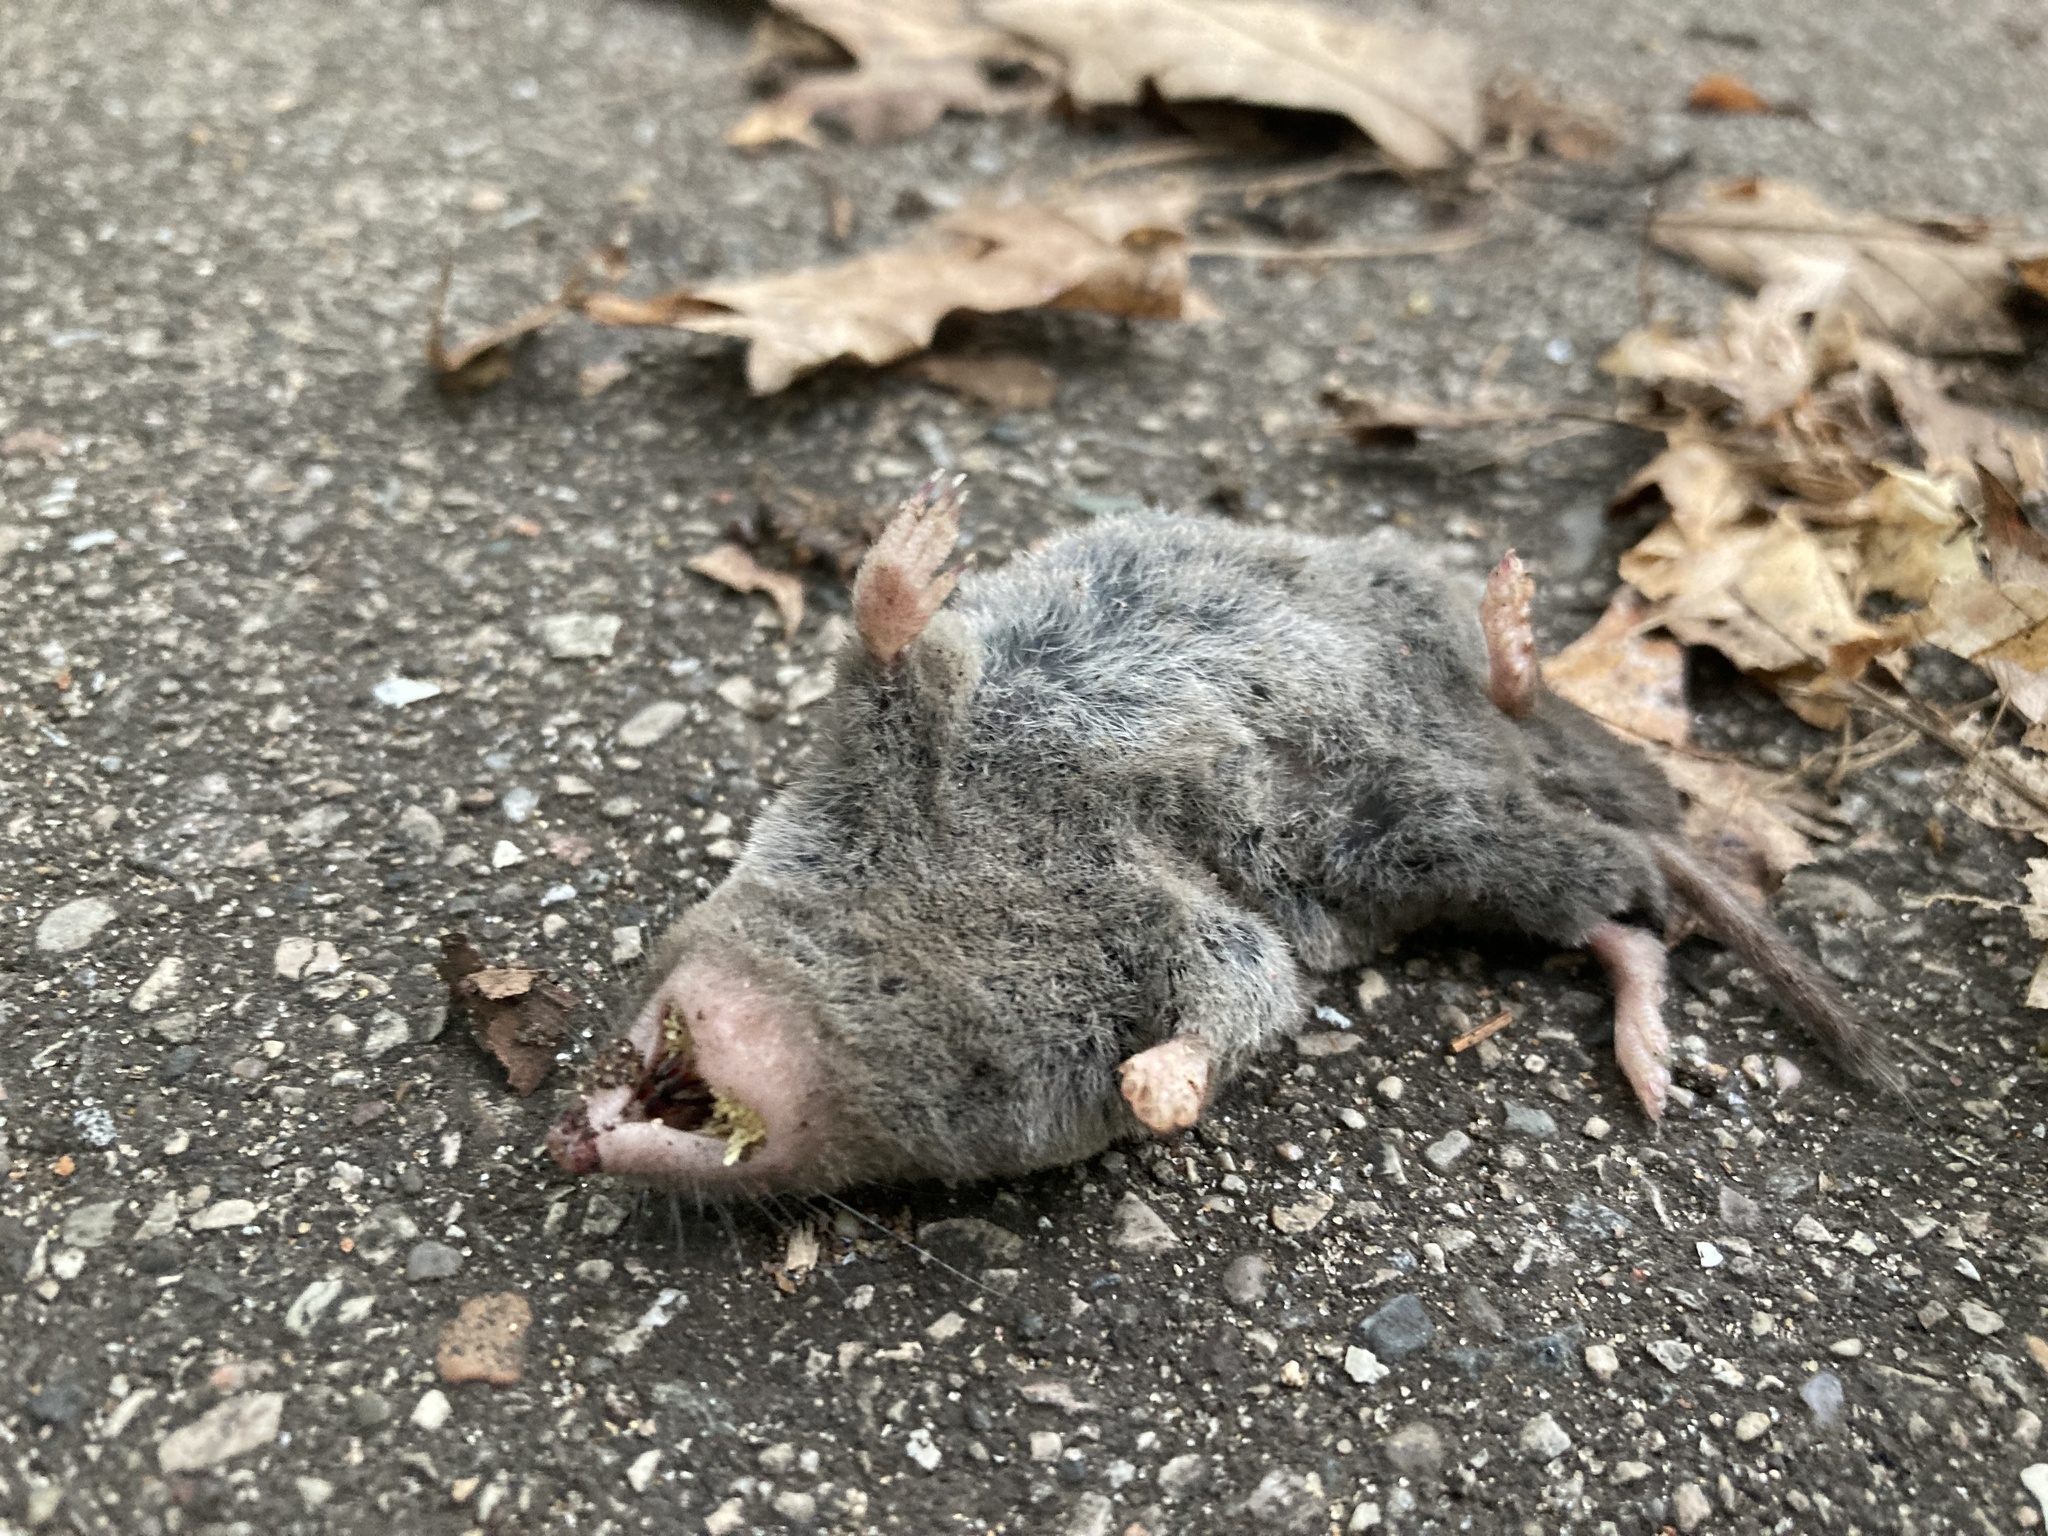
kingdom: Animalia
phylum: Chordata
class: Mammalia
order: Soricomorpha
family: Soricidae
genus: Blarina
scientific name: Blarina brevicauda
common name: Northern short-tailed shrew
